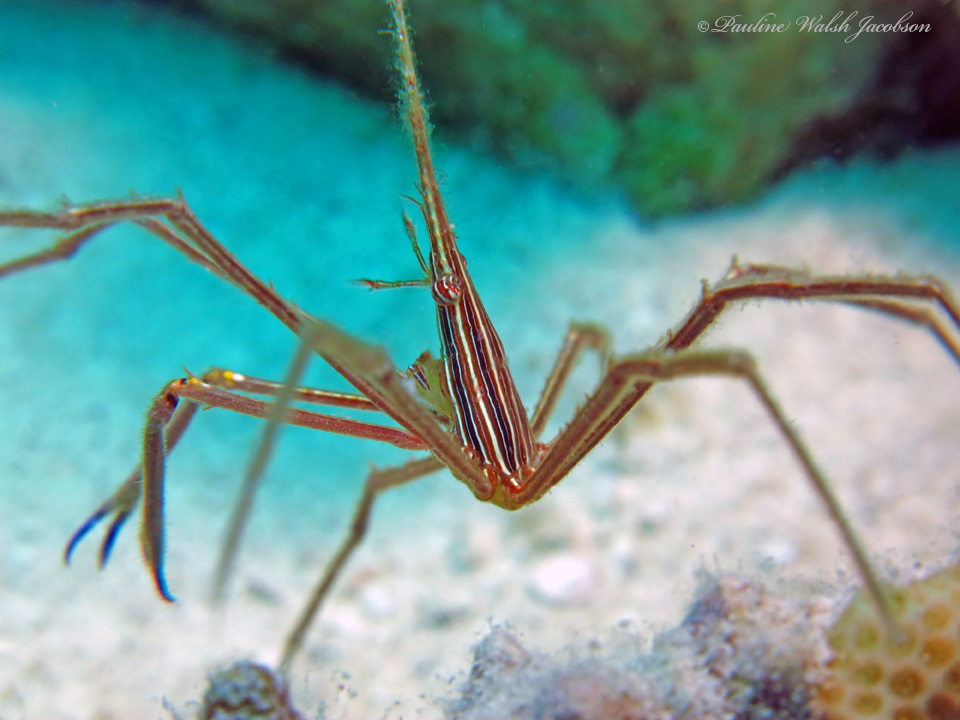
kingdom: Animalia
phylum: Arthropoda
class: Malacostraca
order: Decapoda
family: Inachoididae
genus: Stenorhynchus
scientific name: Stenorhynchus seticornis
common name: Arrow crab
